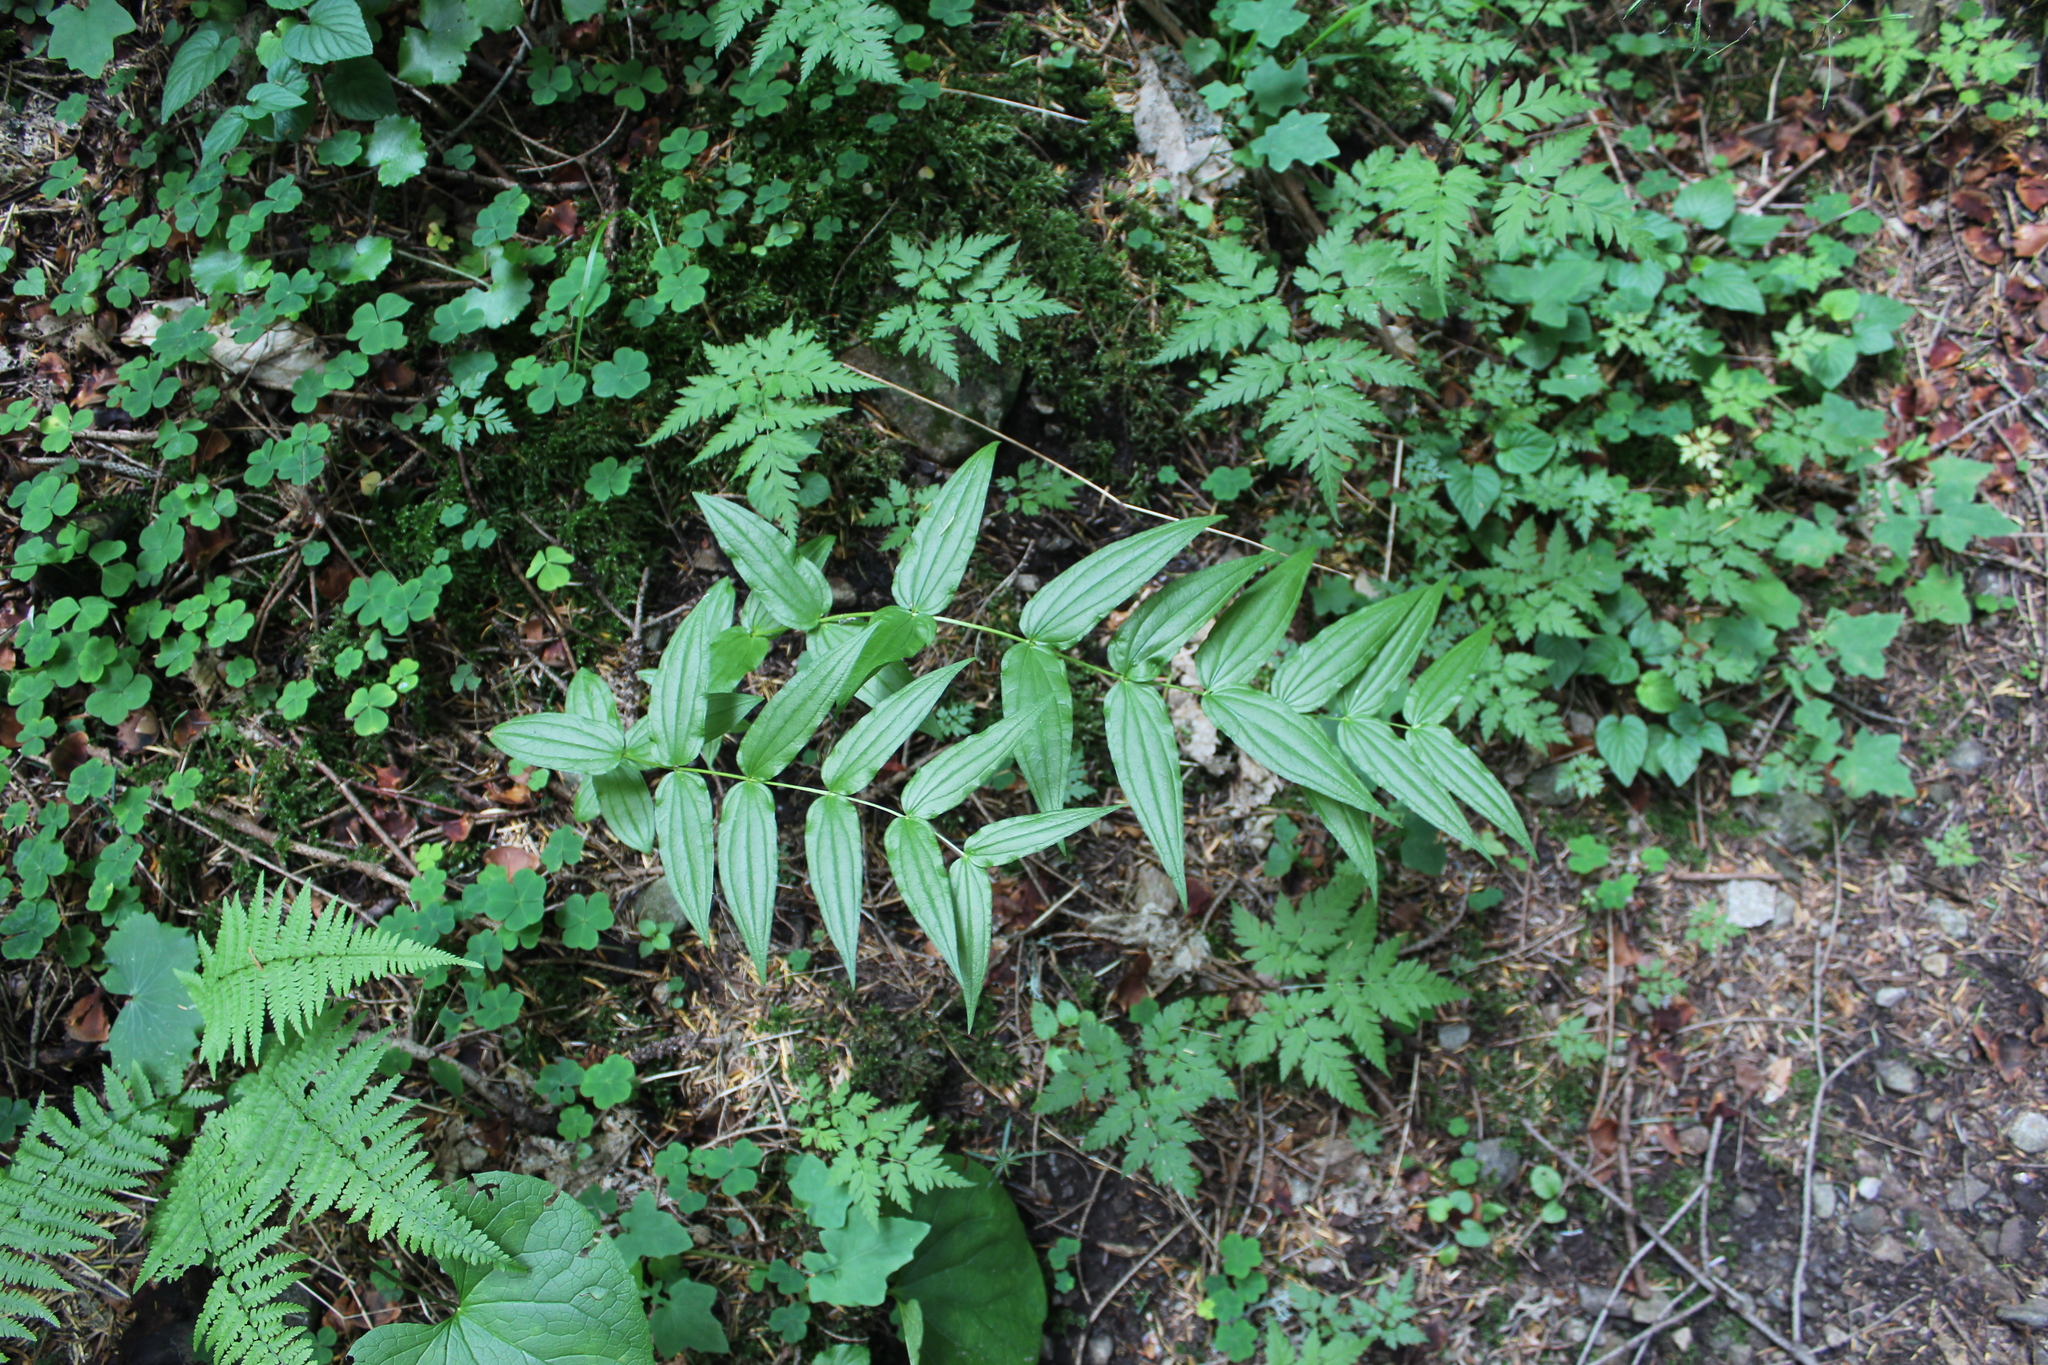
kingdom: Plantae
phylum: Tracheophyta
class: Magnoliopsida
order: Gentianales
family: Gentianaceae
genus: Gentiana
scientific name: Gentiana asclepiadea
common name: Willow gentian
